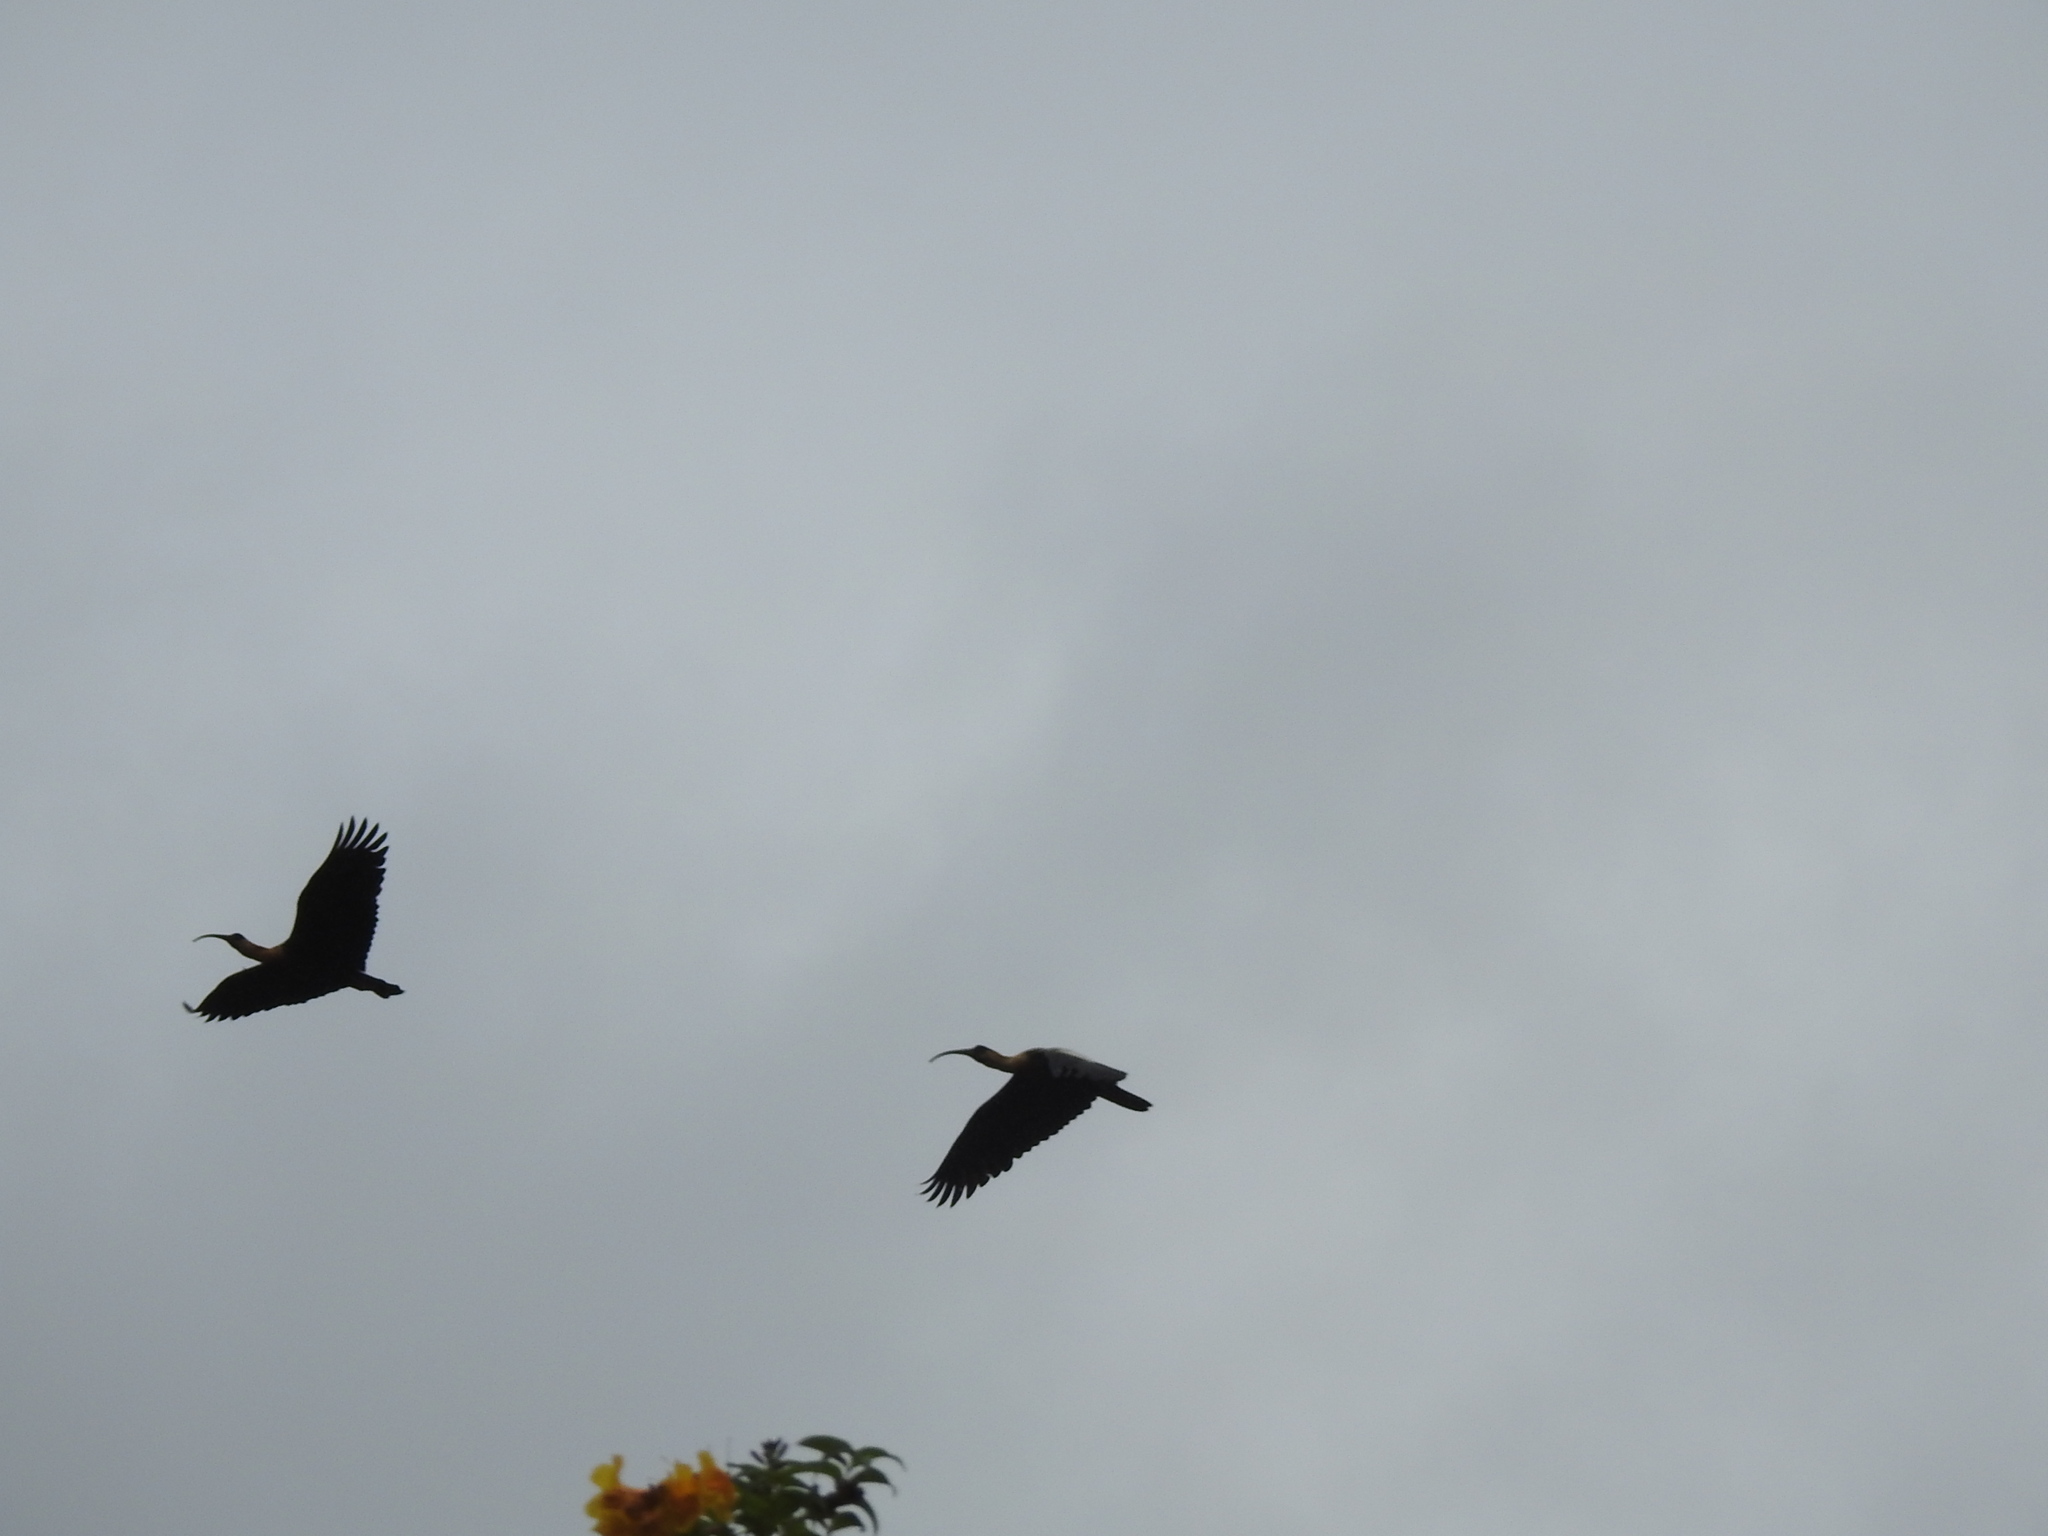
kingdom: Animalia
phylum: Chordata
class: Aves
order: Pelecaniformes
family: Threskiornithidae
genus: Theristicus
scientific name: Theristicus caudatus
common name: Buff-necked ibis
